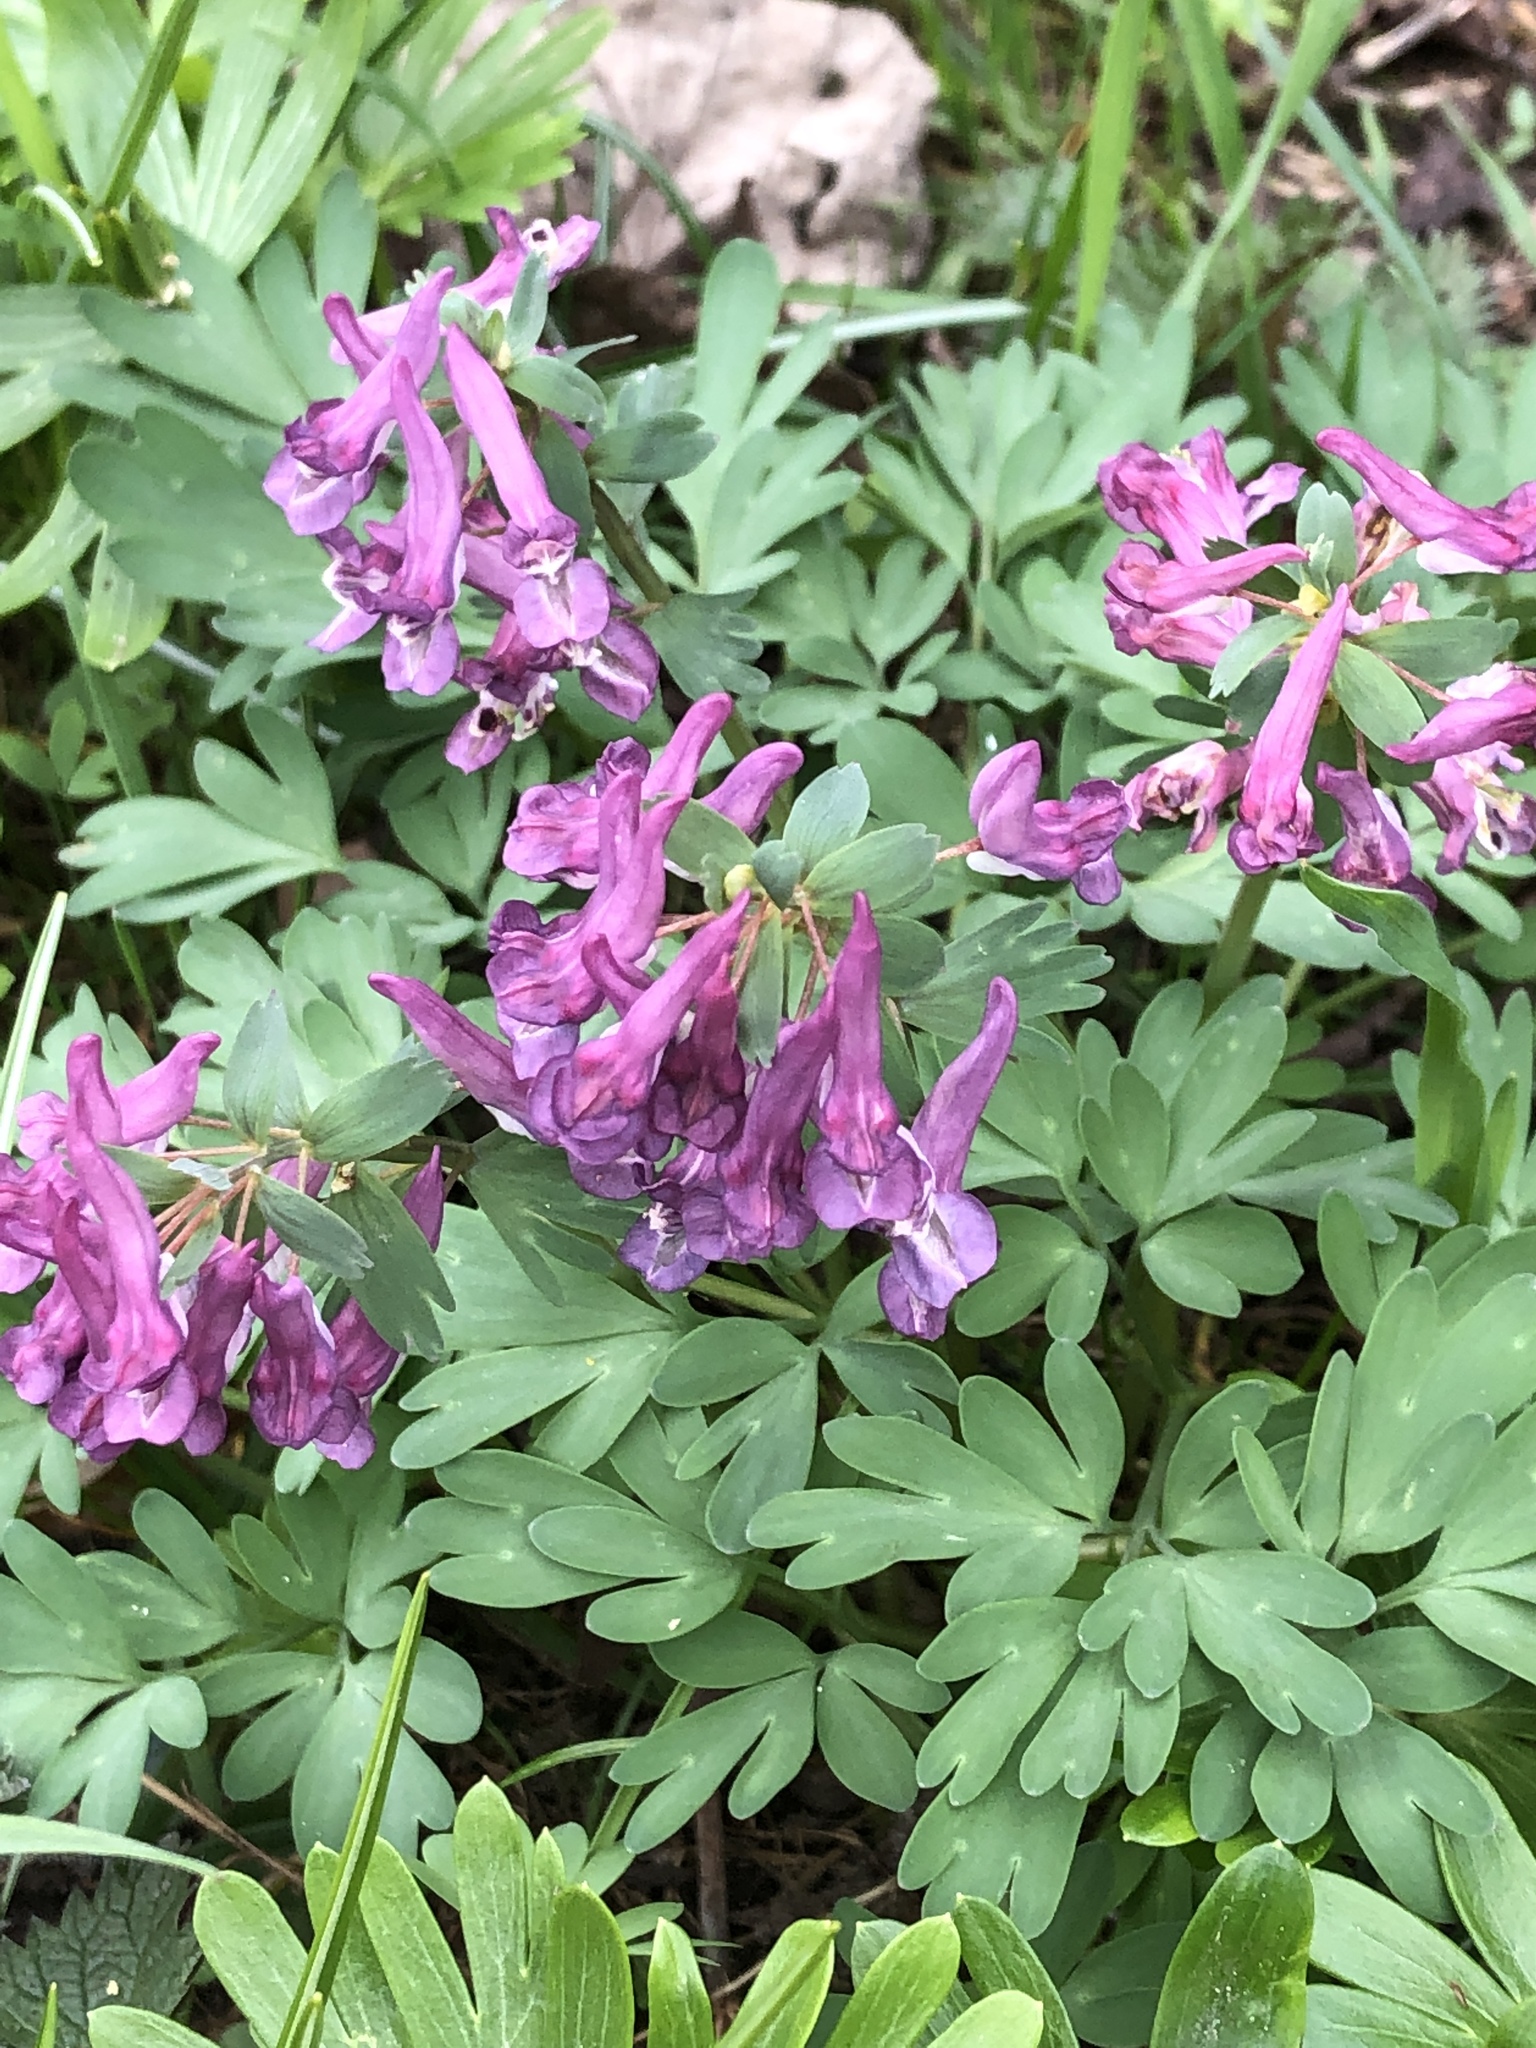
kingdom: Plantae
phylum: Tracheophyta
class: Magnoliopsida
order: Ranunculales
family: Papaveraceae
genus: Corydalis
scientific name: Corydalis hausmannii
